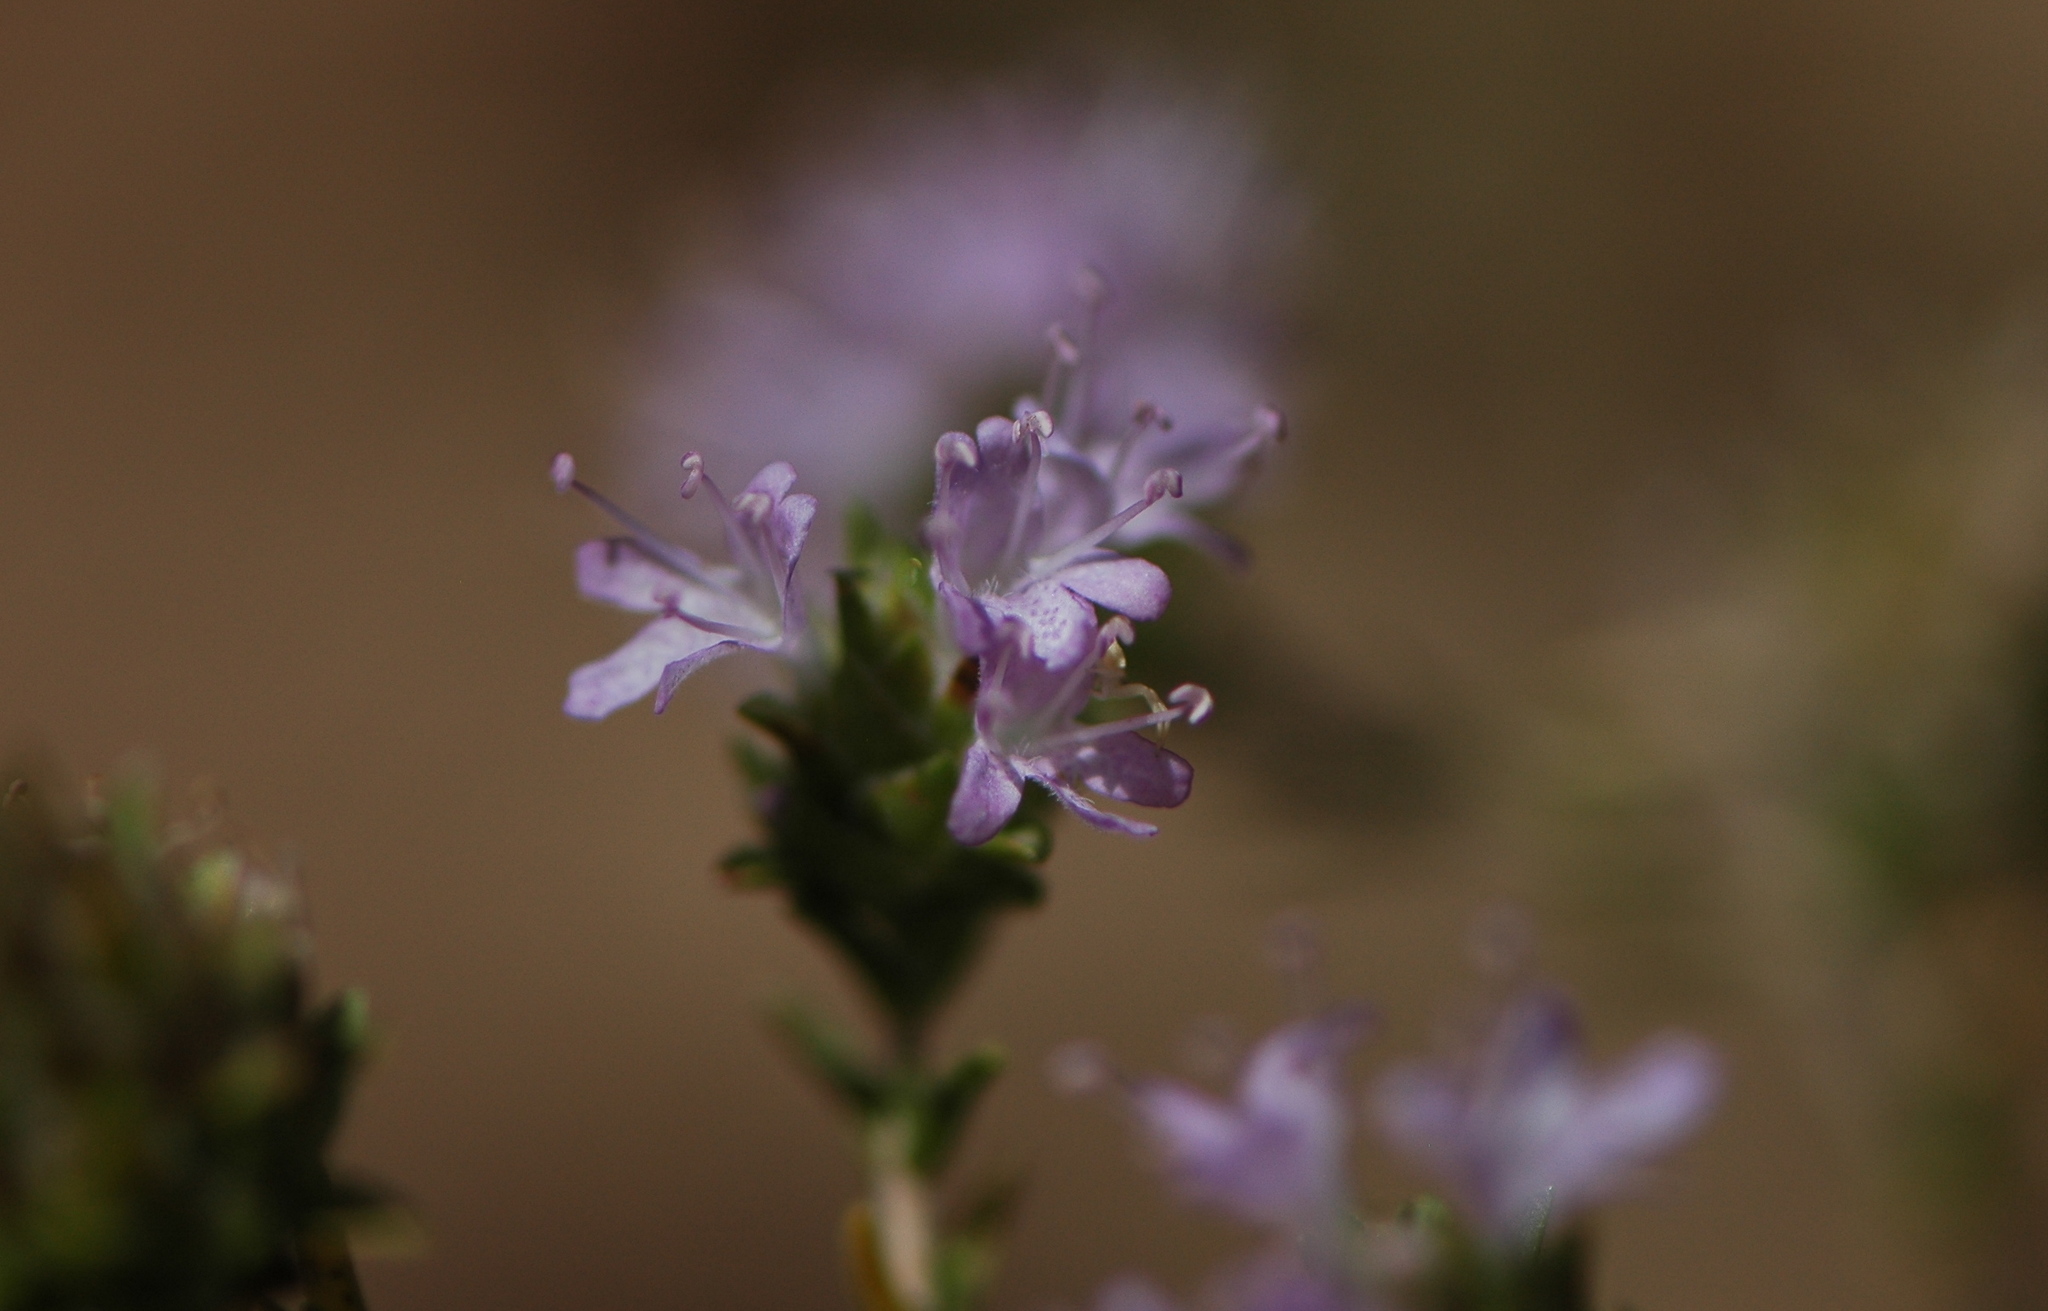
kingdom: Plantae
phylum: Tracheophyta
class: Magnoliopsida
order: Lamiales
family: Lamiaceae
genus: Thymbra
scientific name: Thymbra capitata
